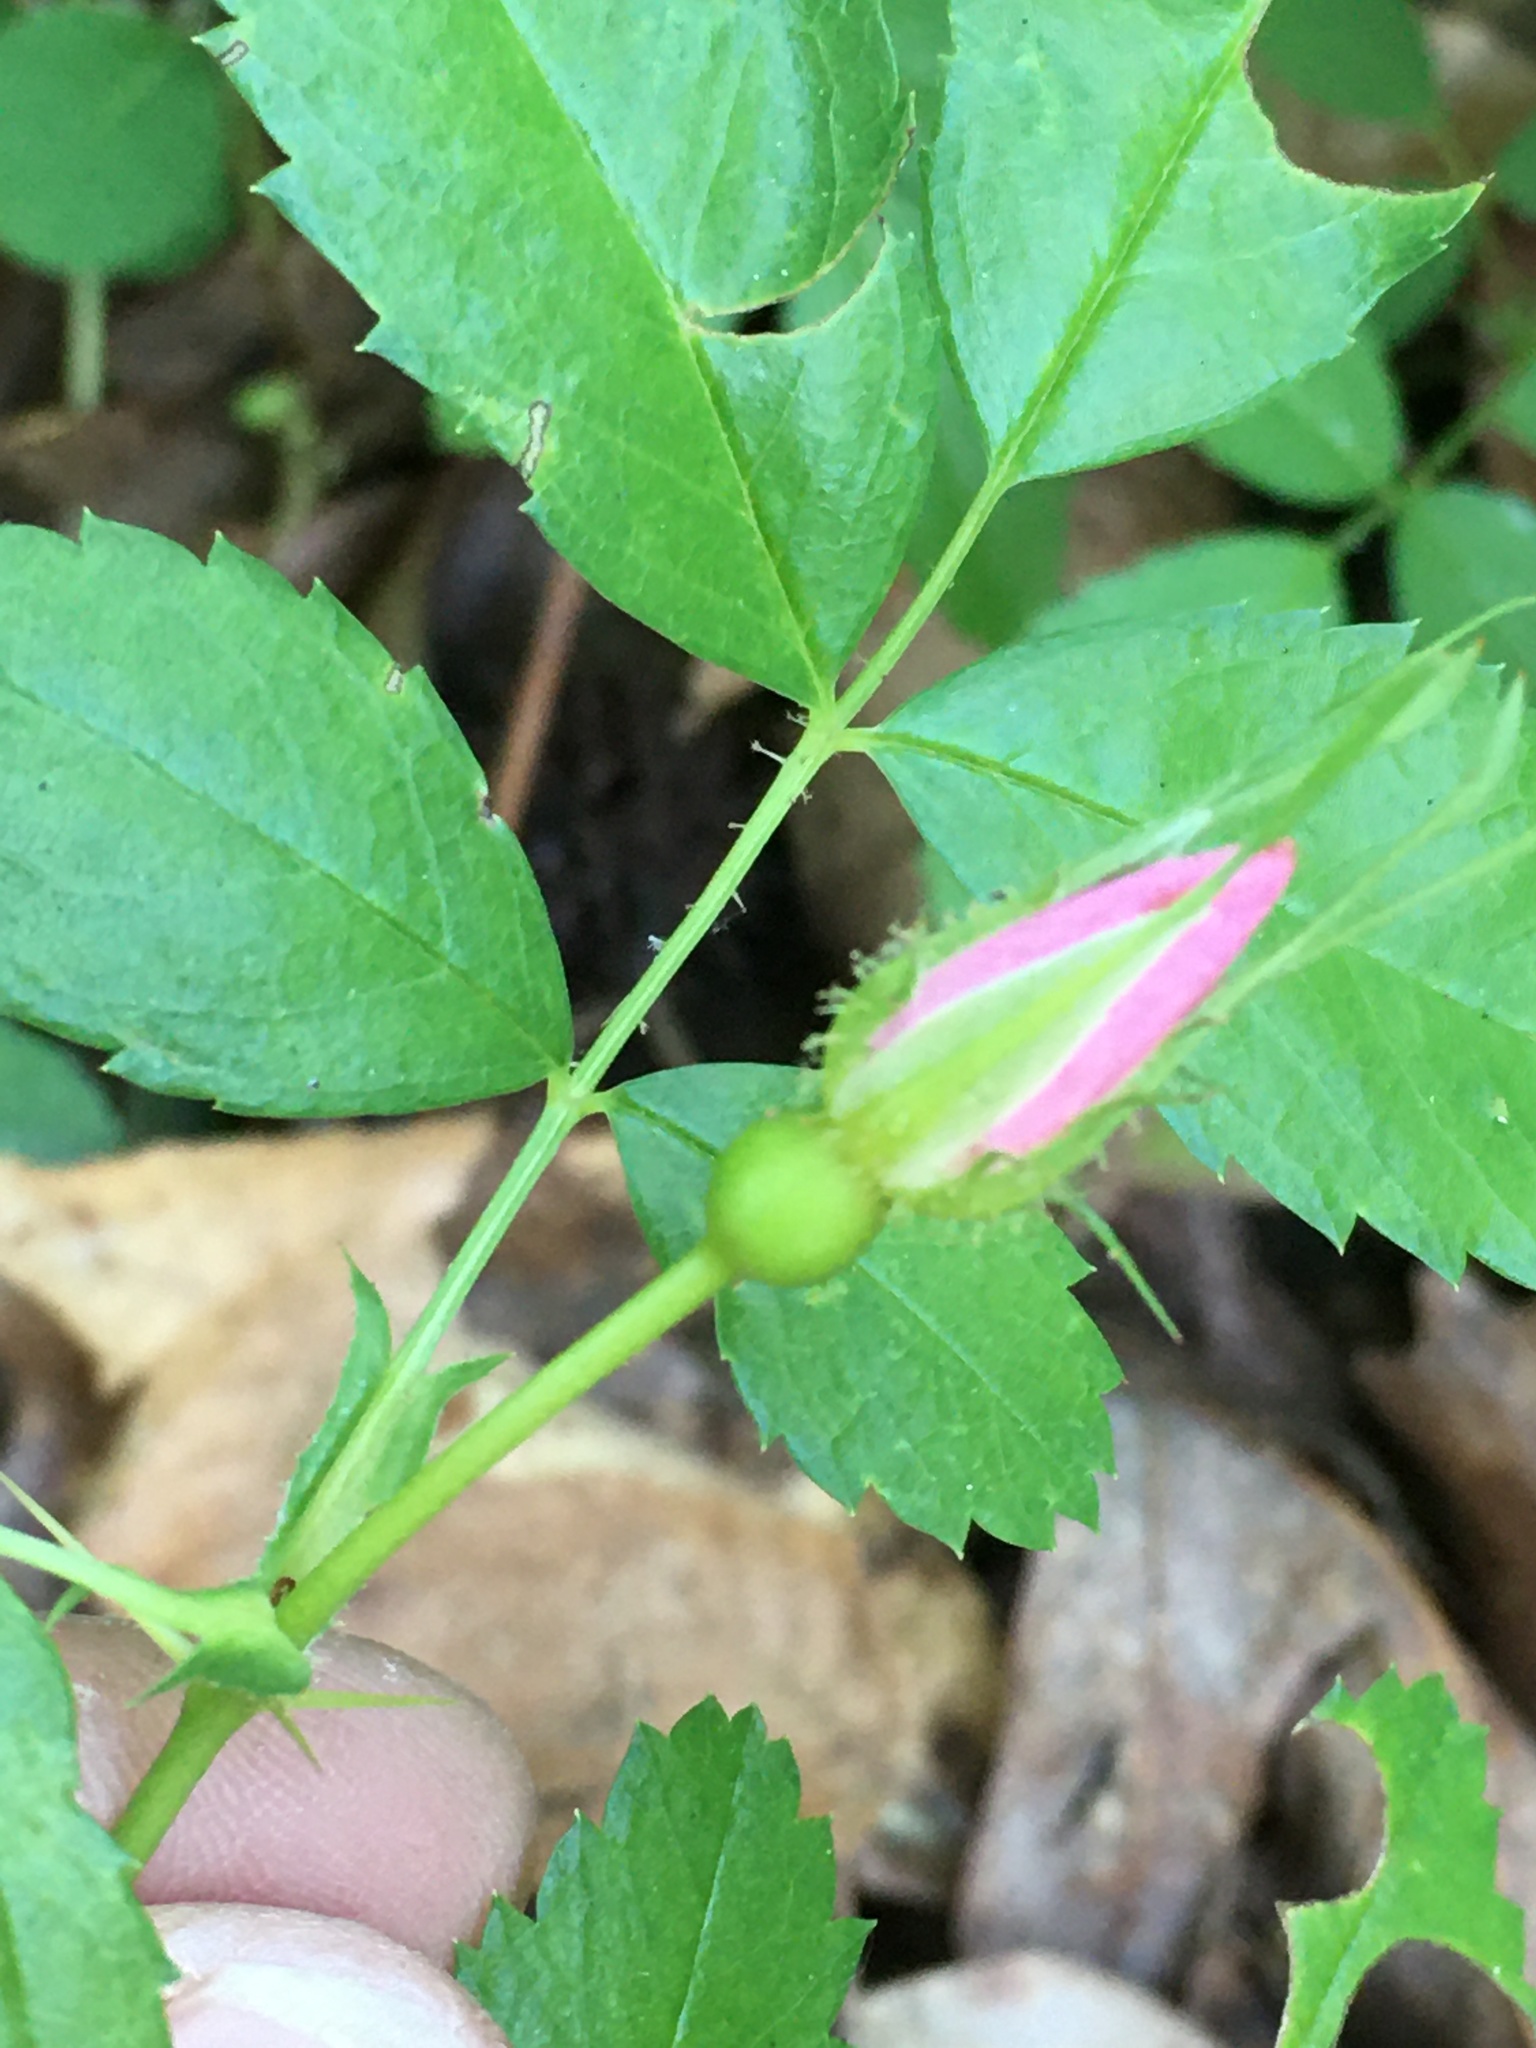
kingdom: Plantae
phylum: Tracheophyta
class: Magnoliopsida
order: Rosales
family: Rosaceae
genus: Rosa
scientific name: Rosa carolina
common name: Pasture rose
